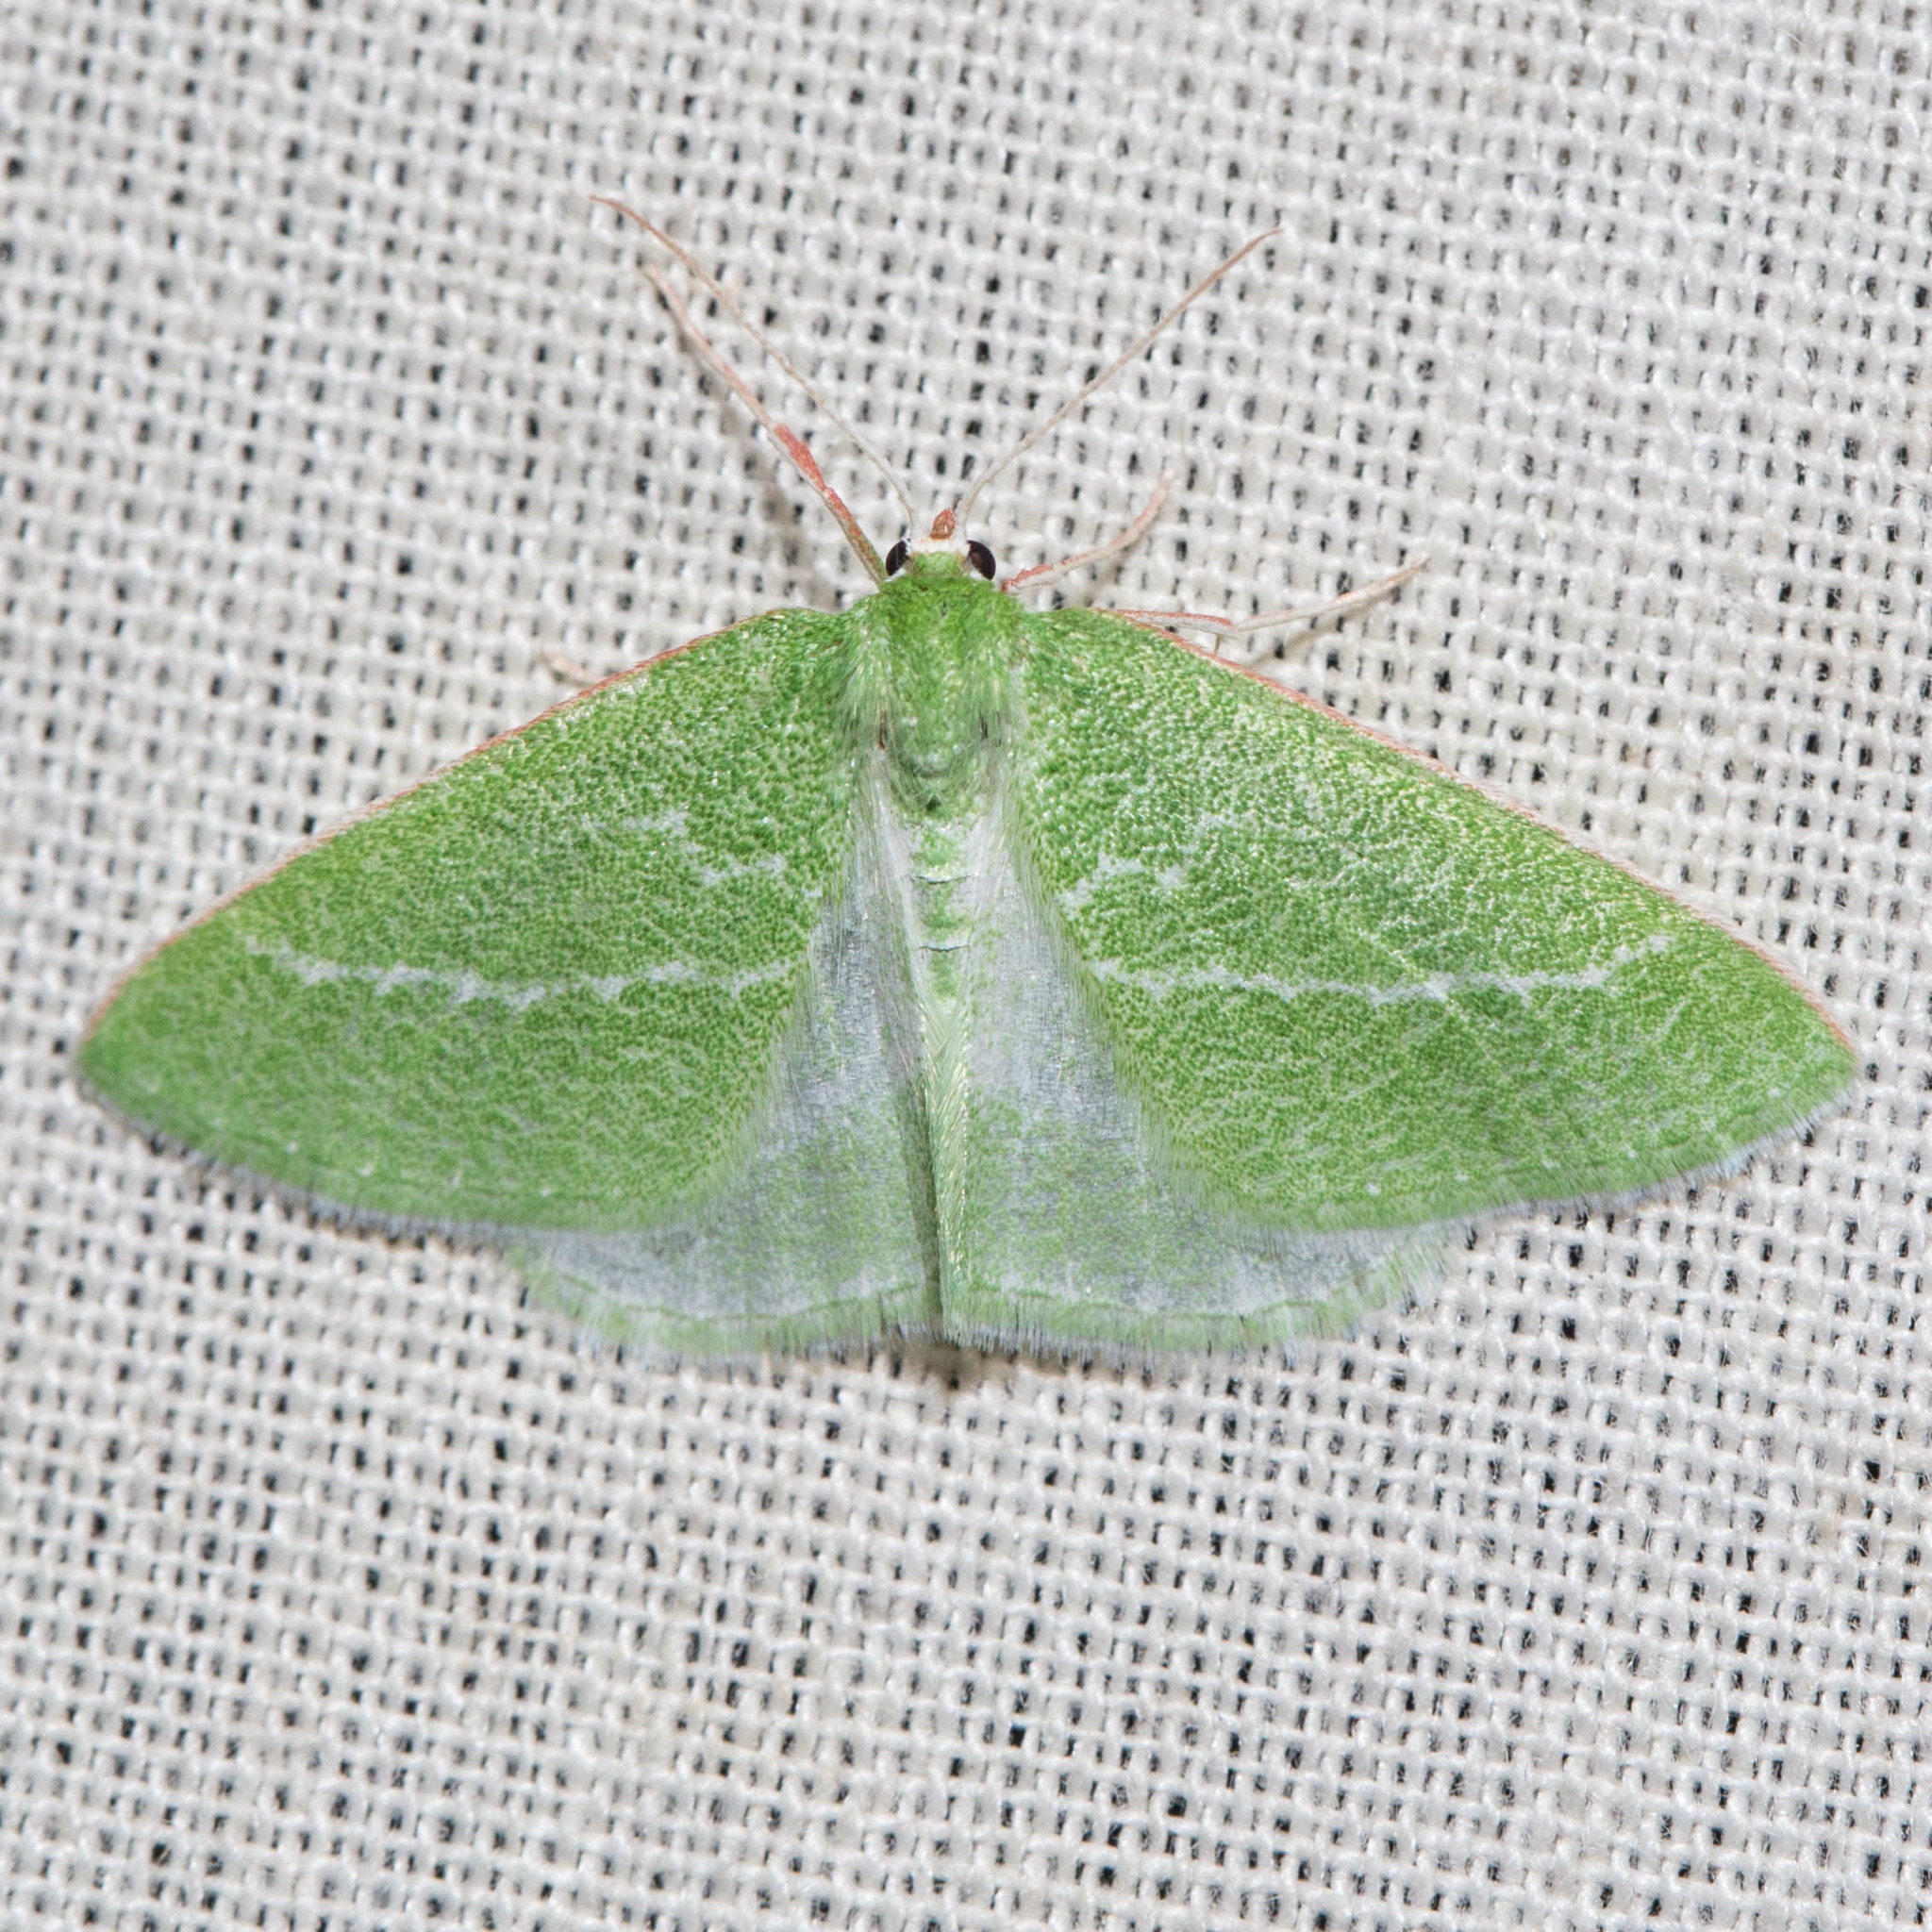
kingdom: Animalia
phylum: Arthropoda
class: Insecta
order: Lepidoptera
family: Geometridae
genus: Synchlora
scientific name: Synchlora faseolaria
